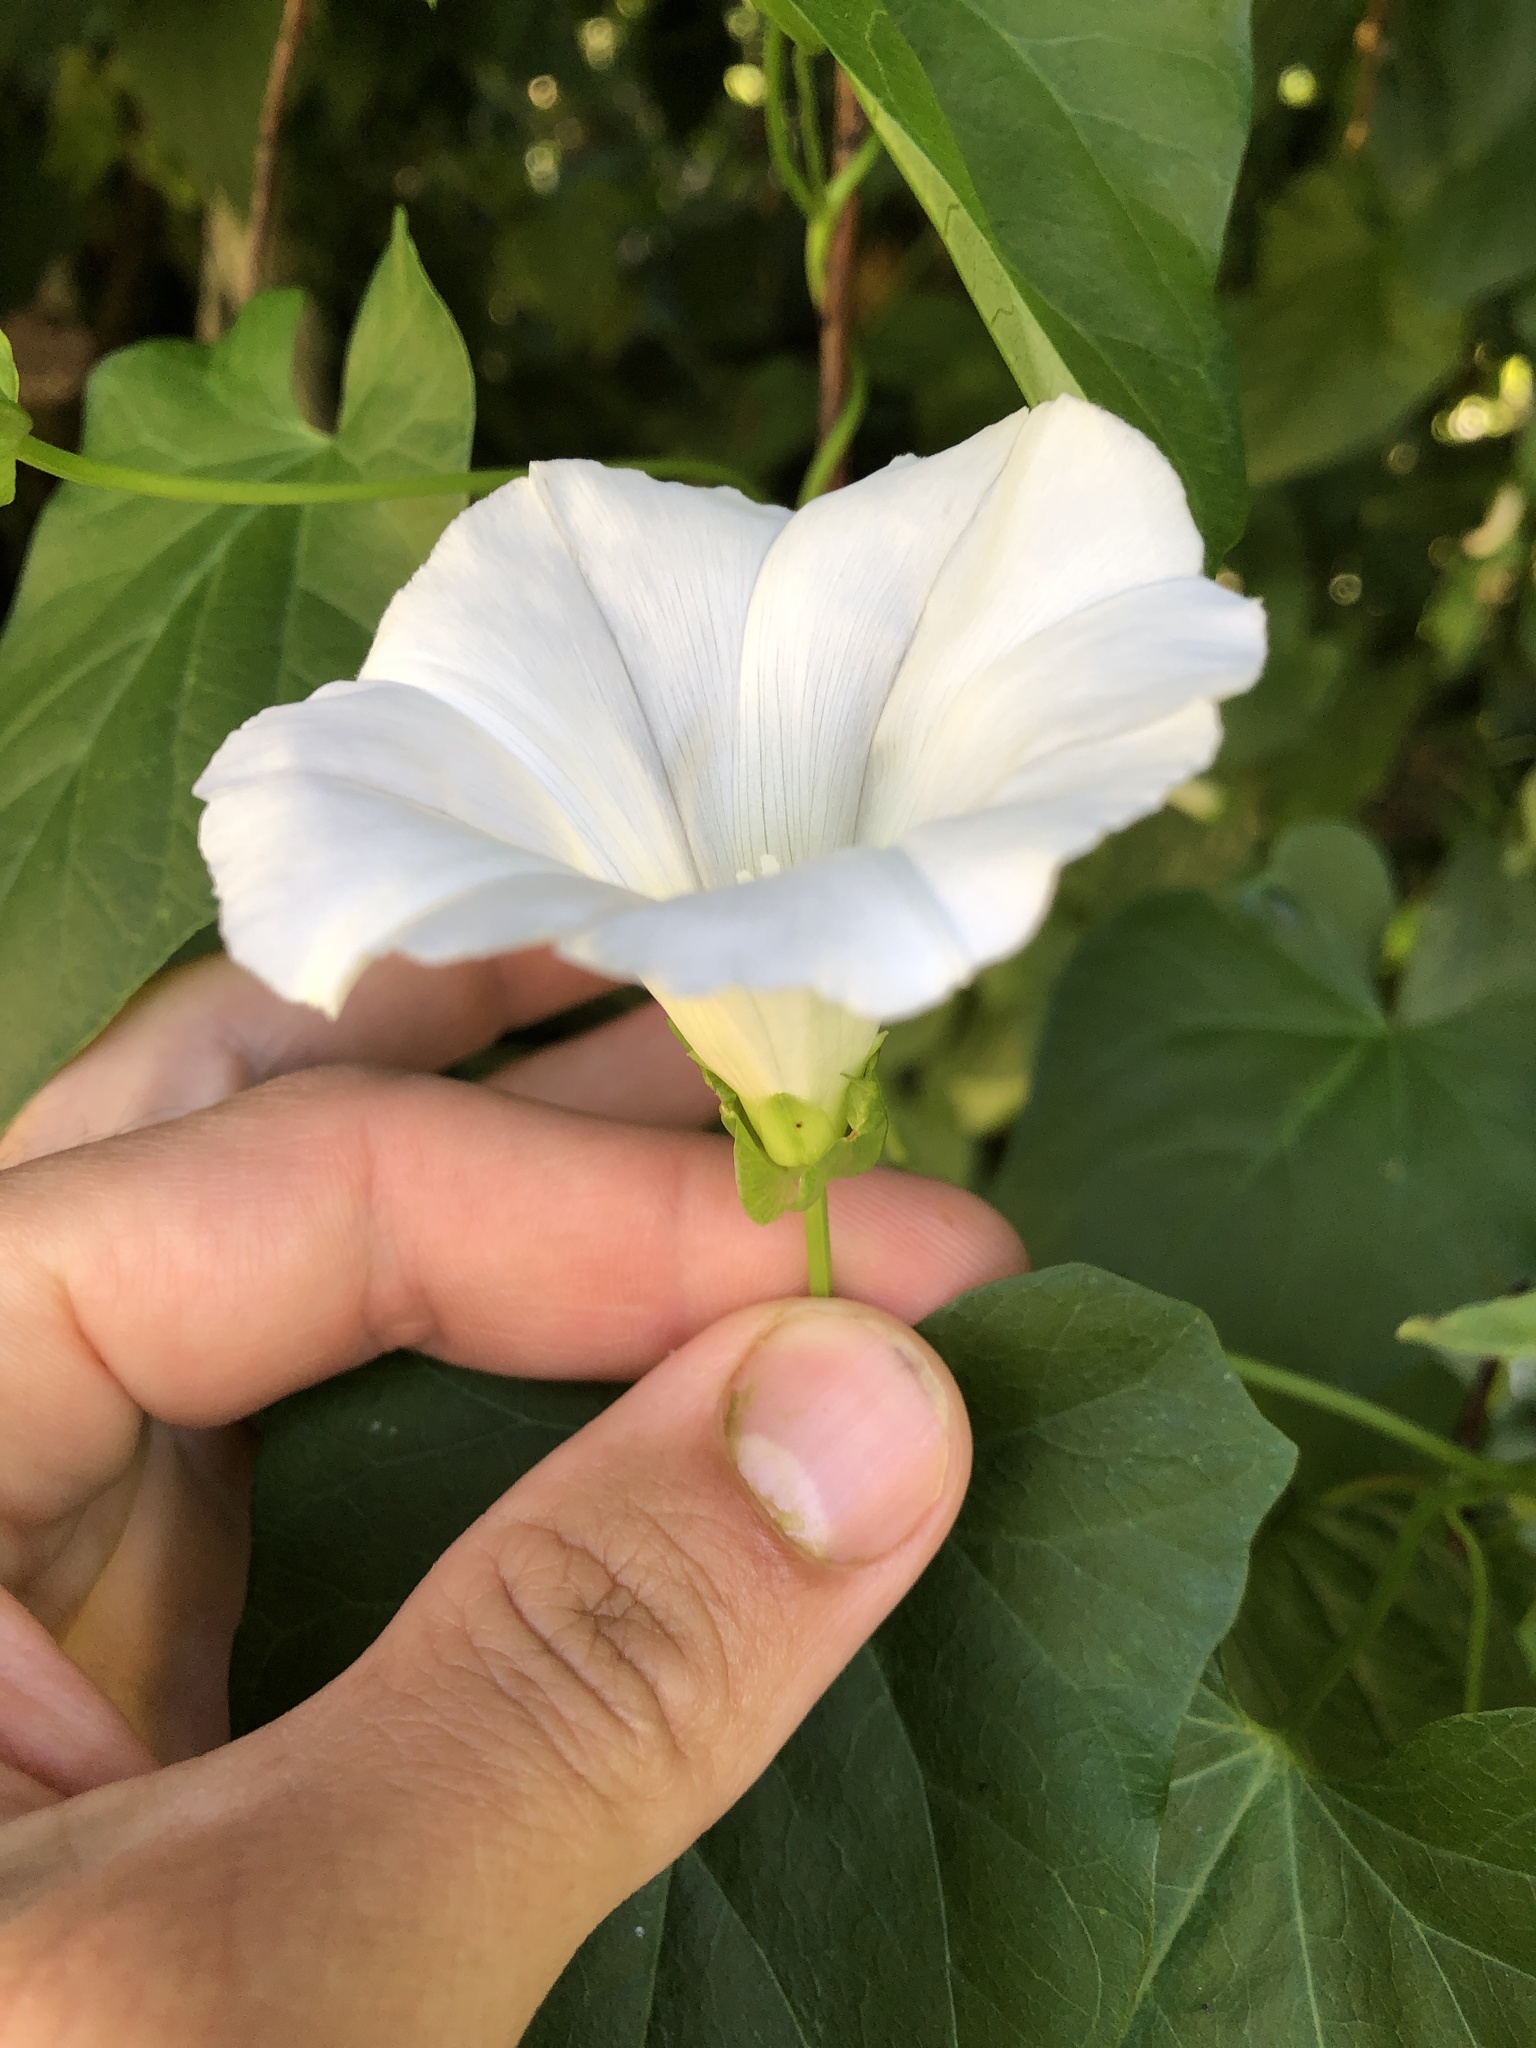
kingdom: Plantae
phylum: Tracheophyta
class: Magnoliopsida
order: Solanales
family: Convolvulaceae
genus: Calystegia
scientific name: Calystegia sepium
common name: Hedge bindweed
